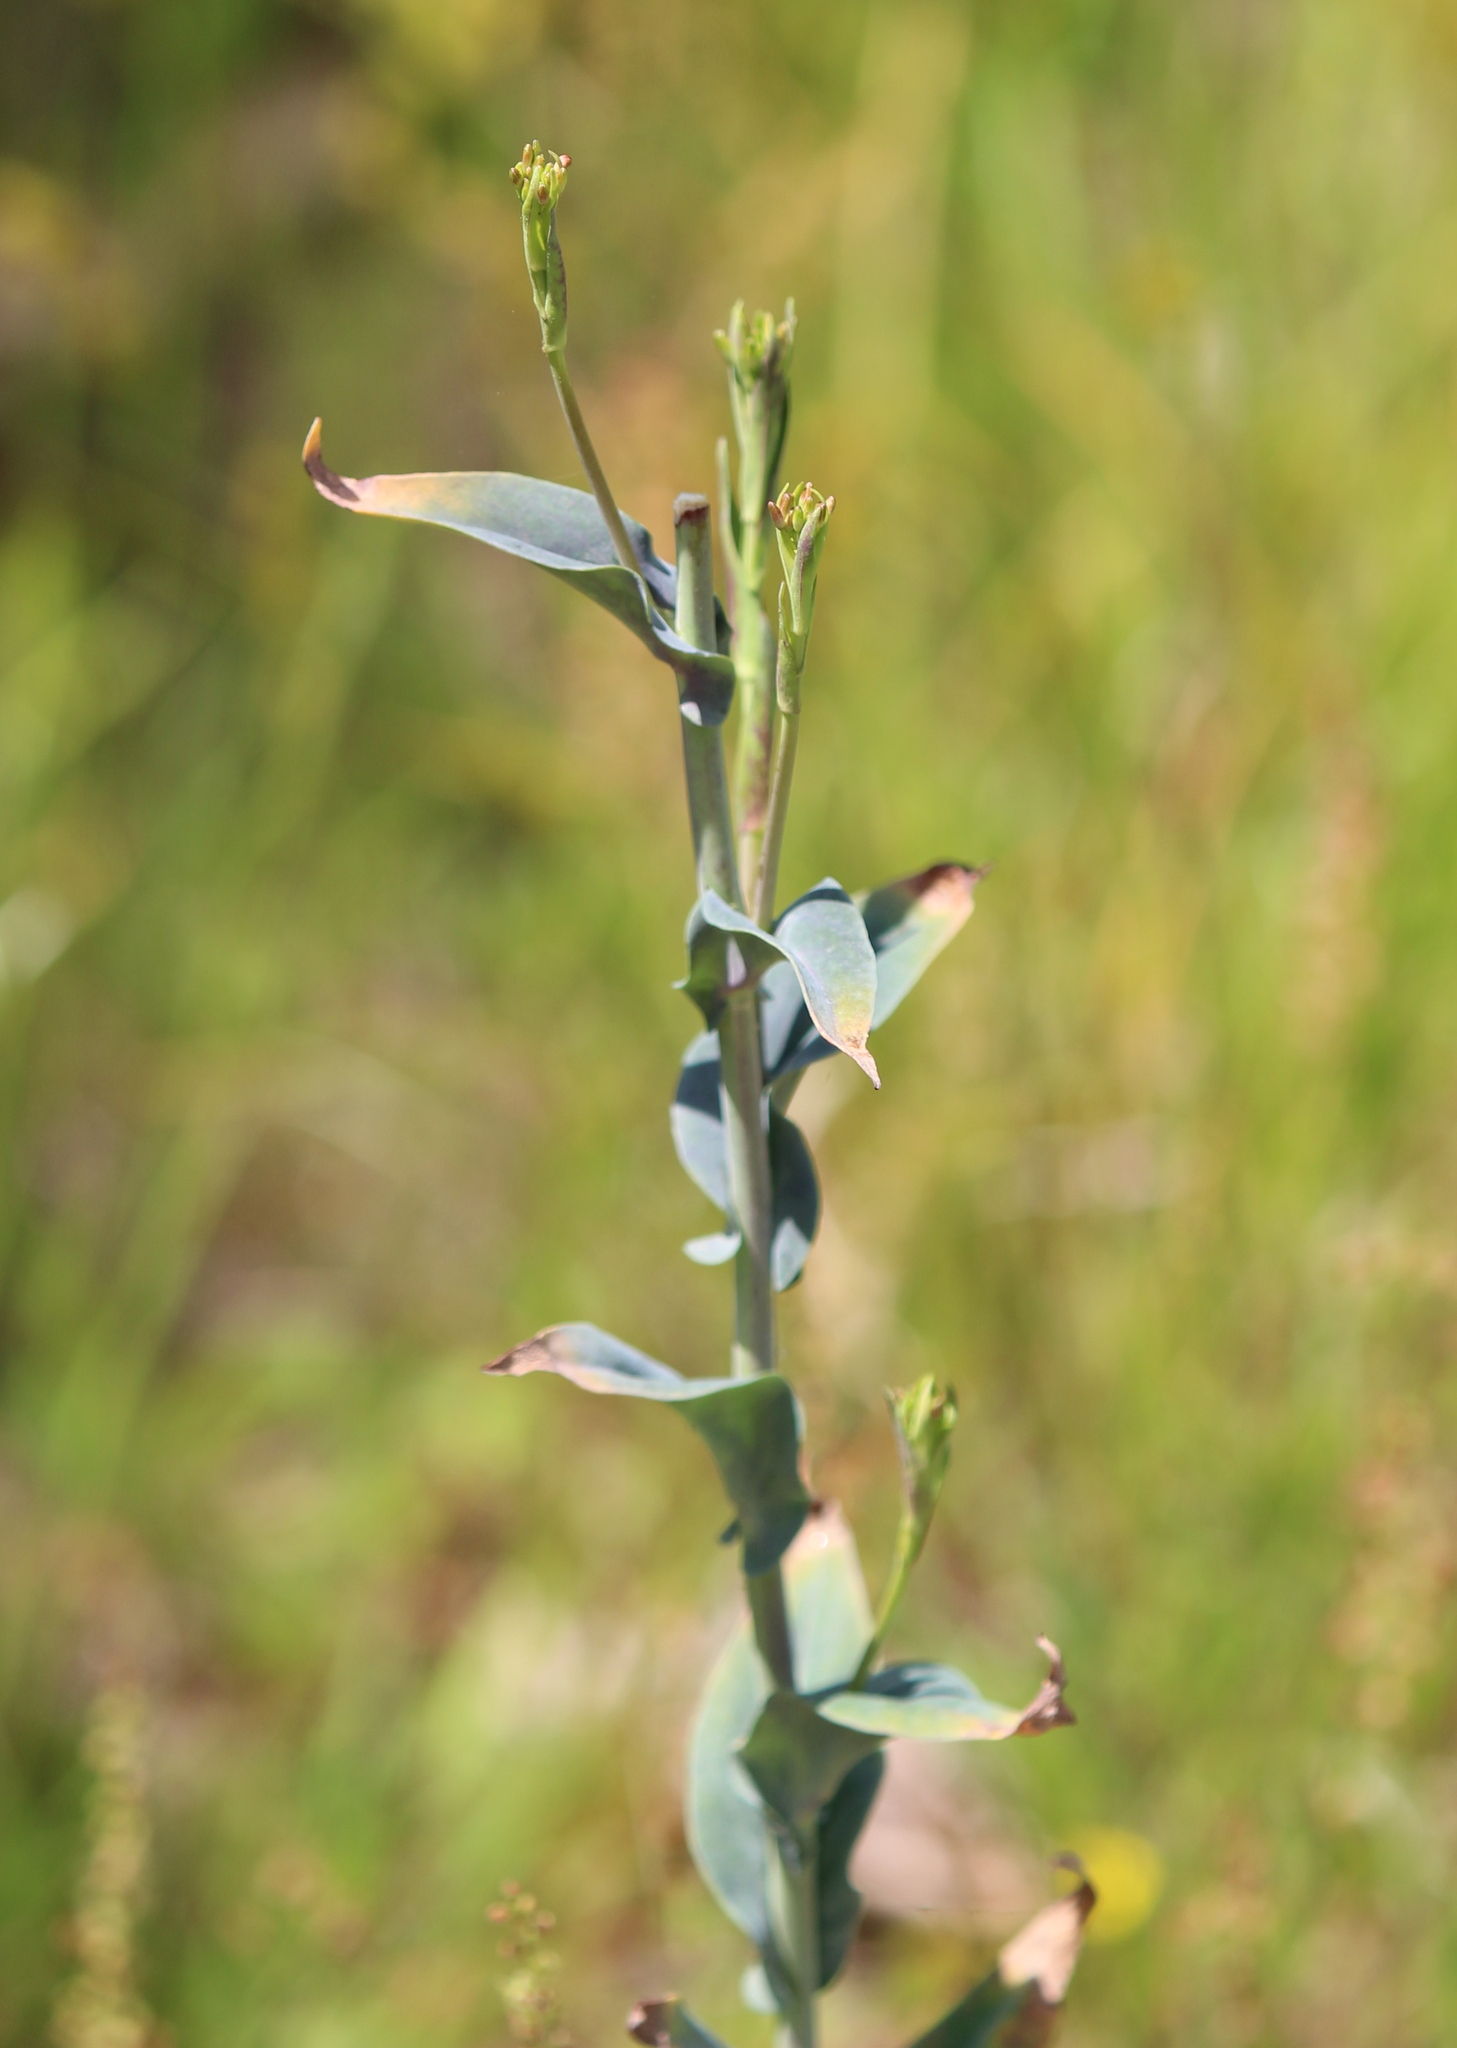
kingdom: Plantae
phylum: Tracheophyta
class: Magnoliopsida
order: Brassicales
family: Brassicaceae
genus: Turritis
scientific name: Turritis glabra
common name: Tower rockcress
